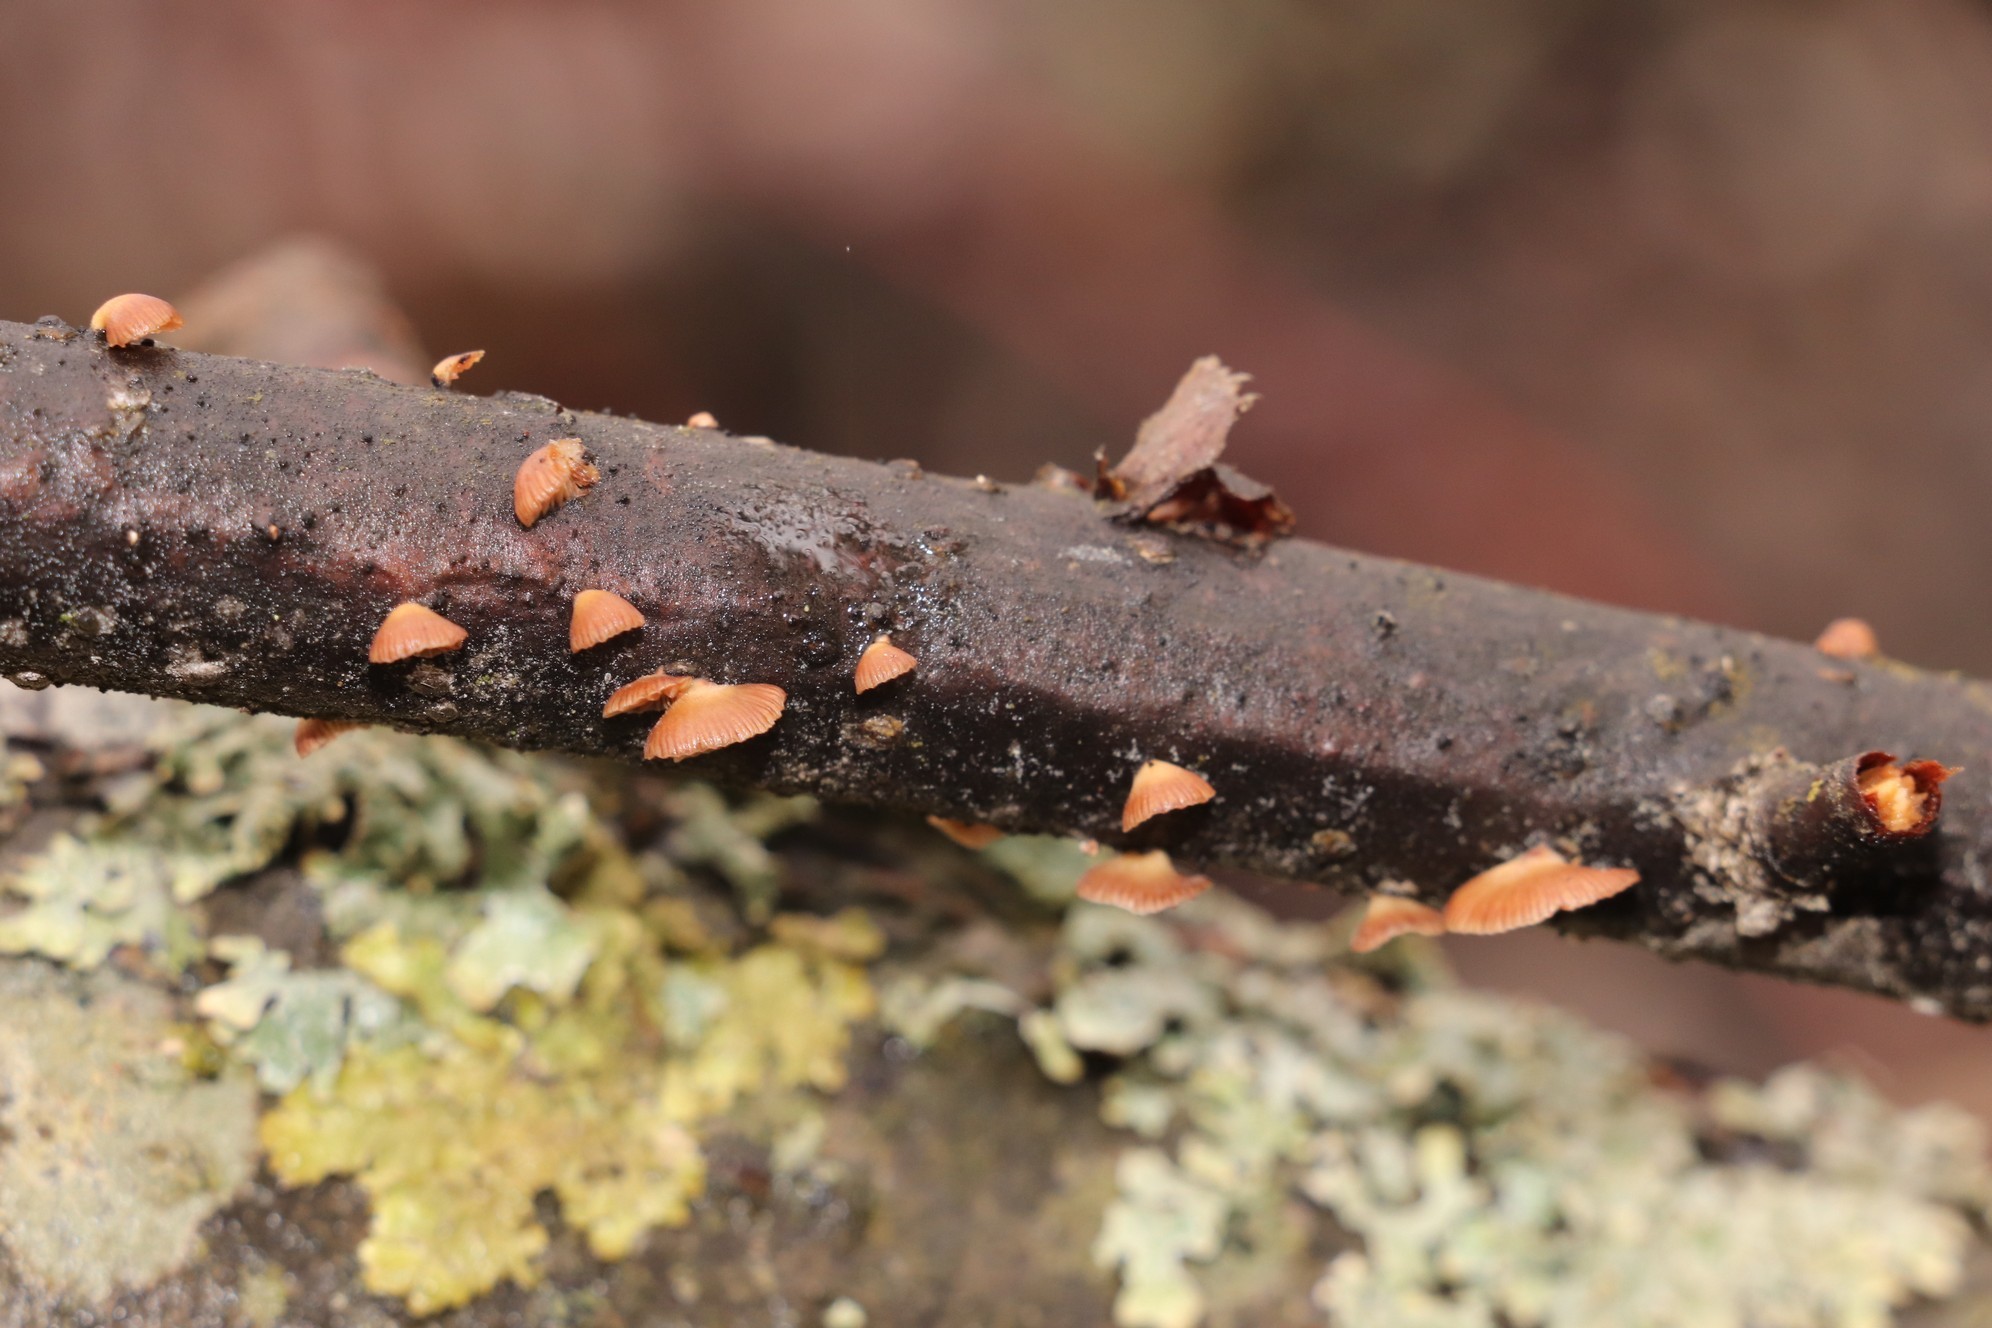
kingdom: Fungi
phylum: Basidiomycota
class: Agaricomycetes
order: Agaricales
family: Mycenaceae
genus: Panellus
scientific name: Panellus ringens
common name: Winter oysterling
